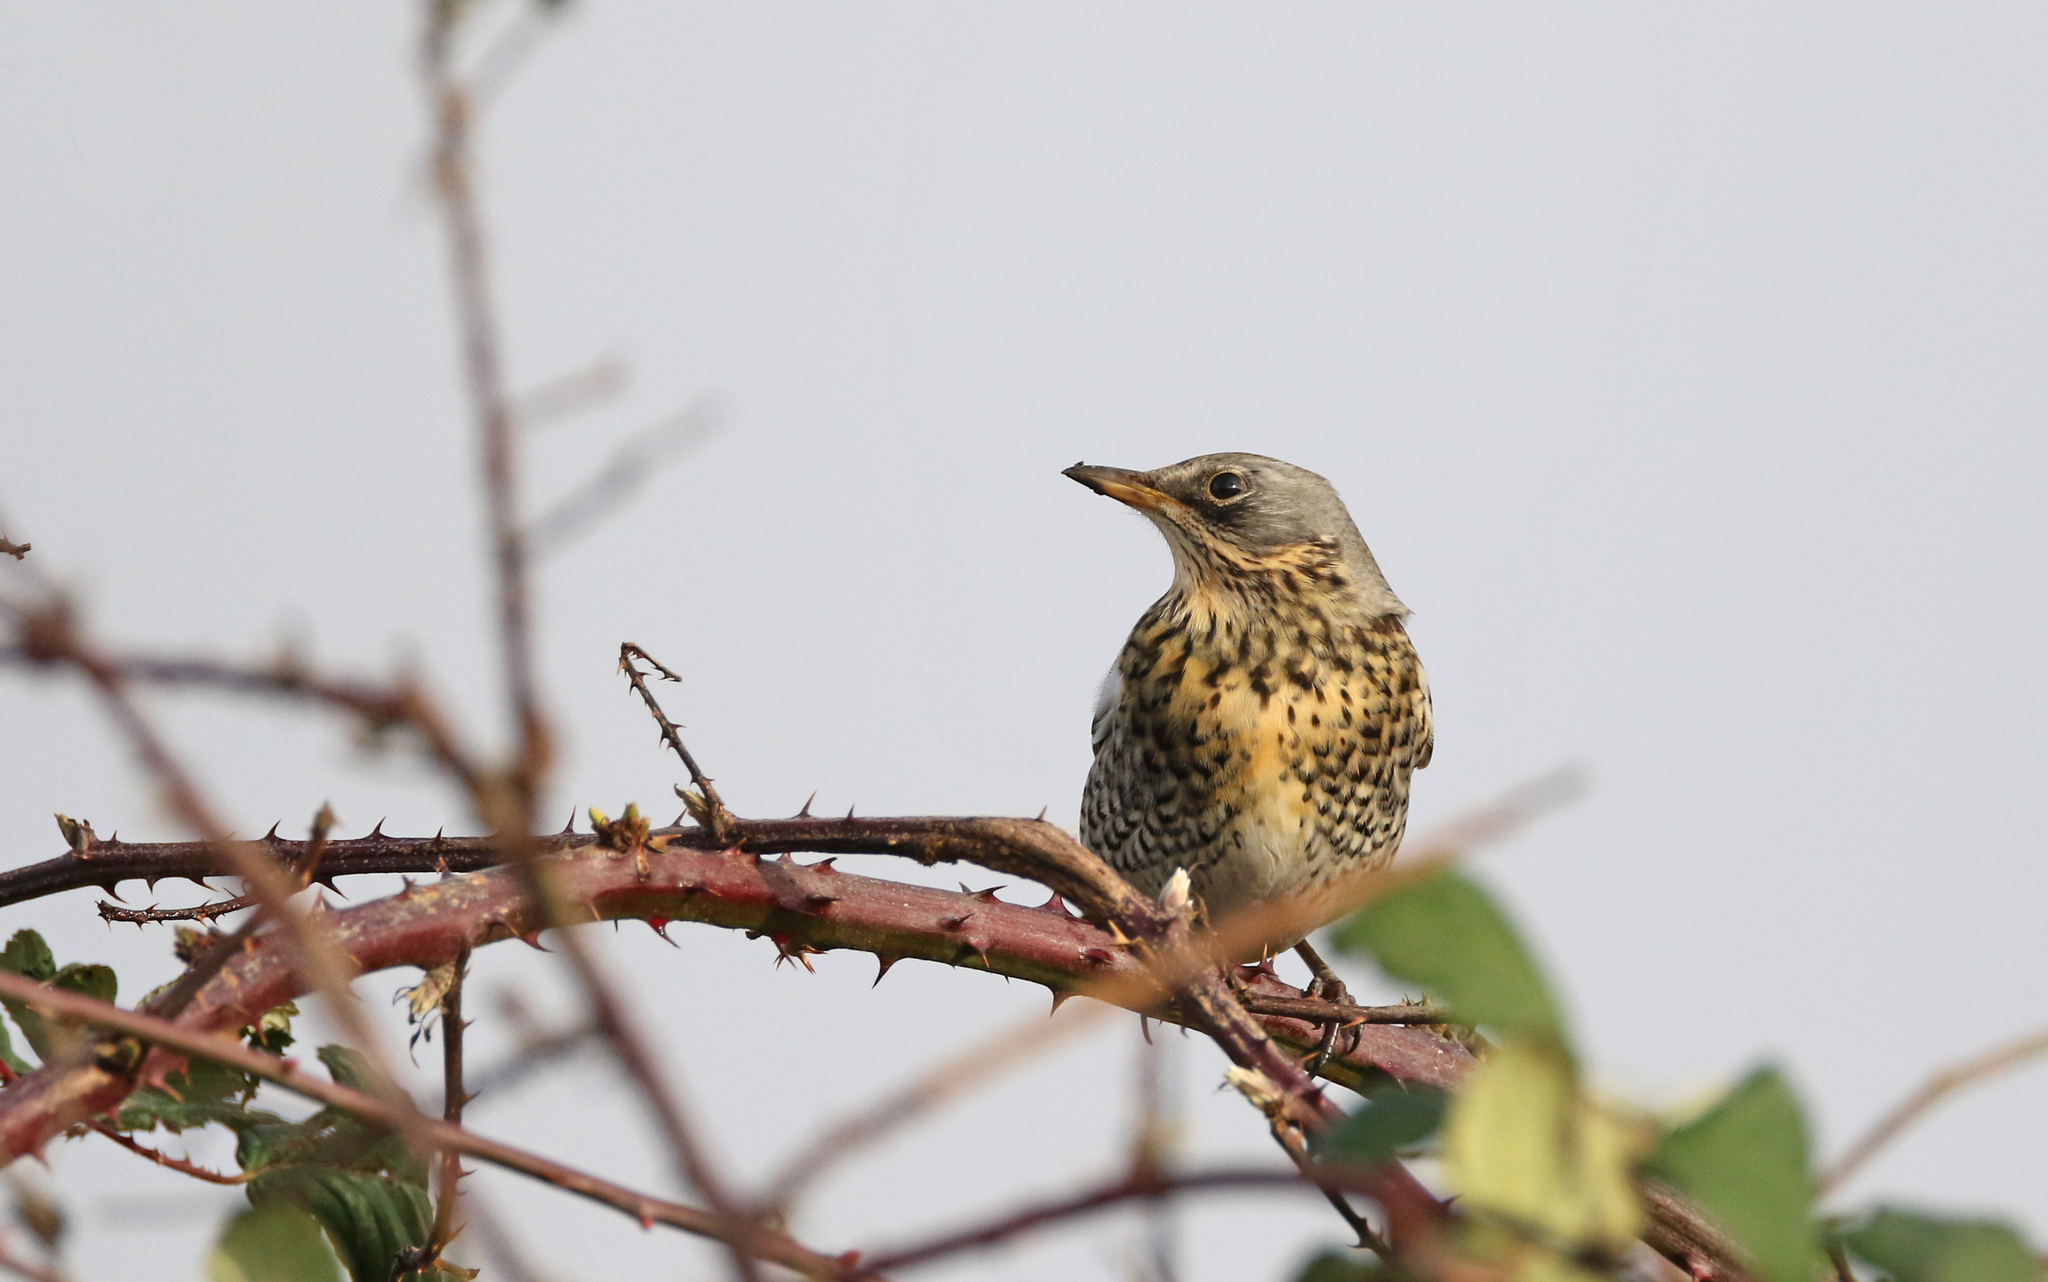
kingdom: Animalia
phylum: Chordata
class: Aves
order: Passeriformes
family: Turdidae
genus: Turdus
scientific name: Turdus pilaris
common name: Fieldfare
